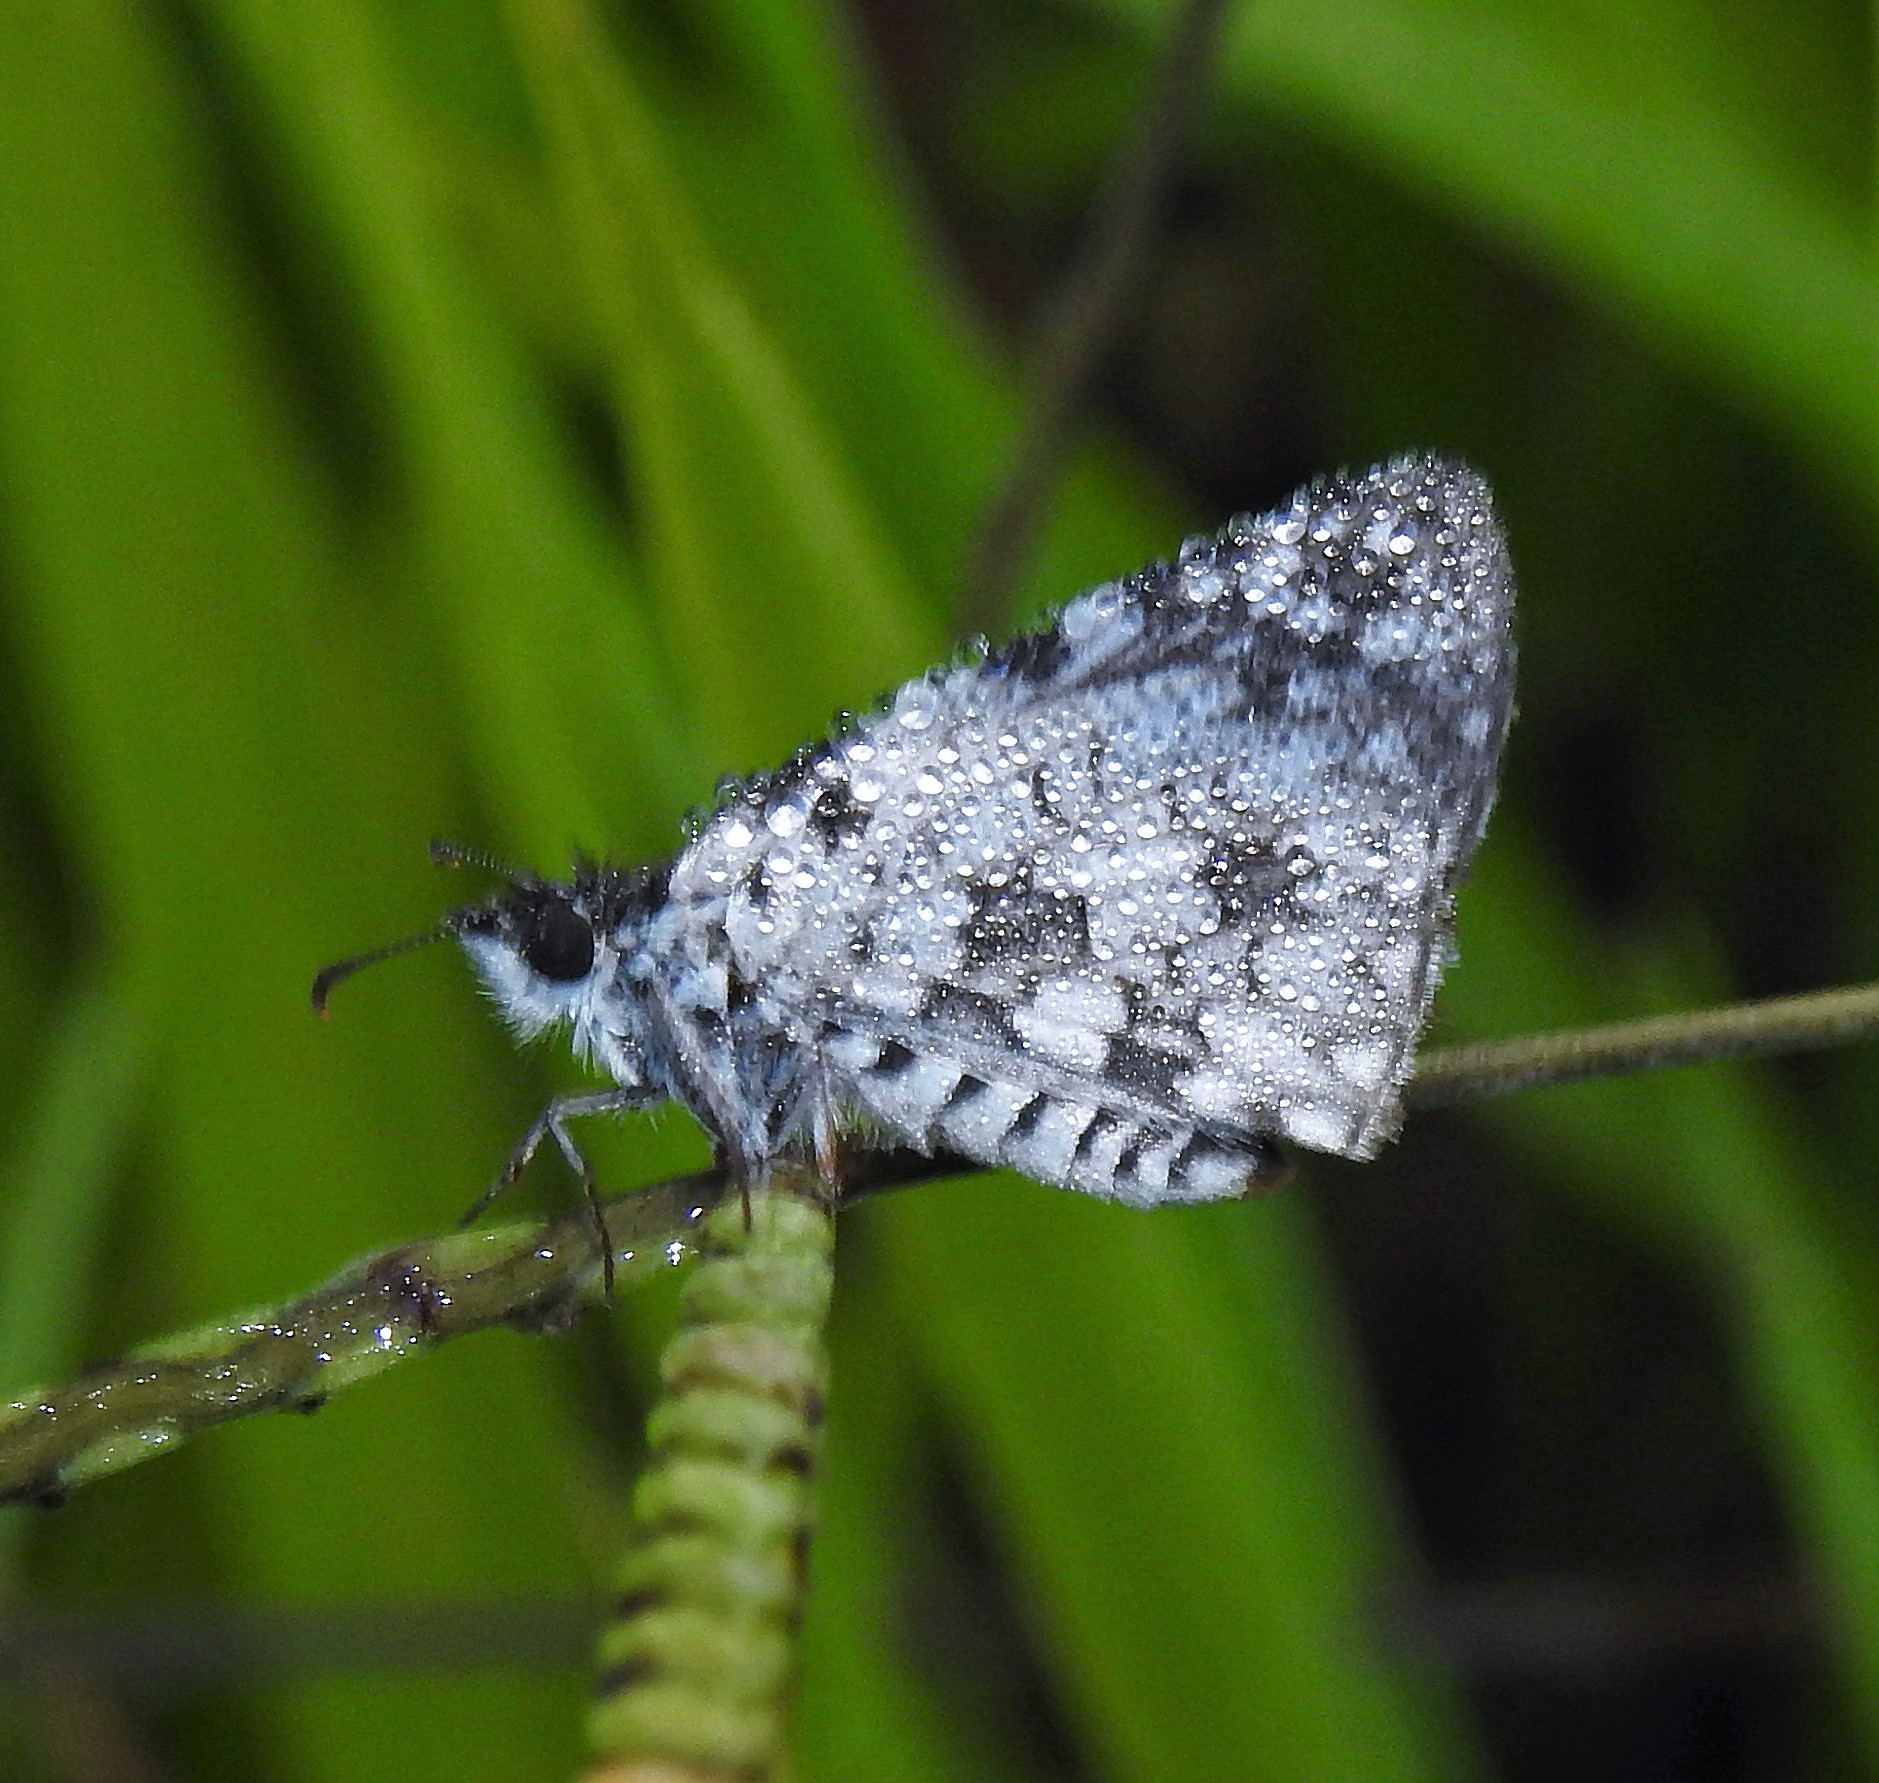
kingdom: Animalia
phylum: Arthropoda
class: Insecta
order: Lepidoptera
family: Hesperiidae
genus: Pyrgus
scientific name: Pyrgus oileus
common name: Tropical checkered-skipper
